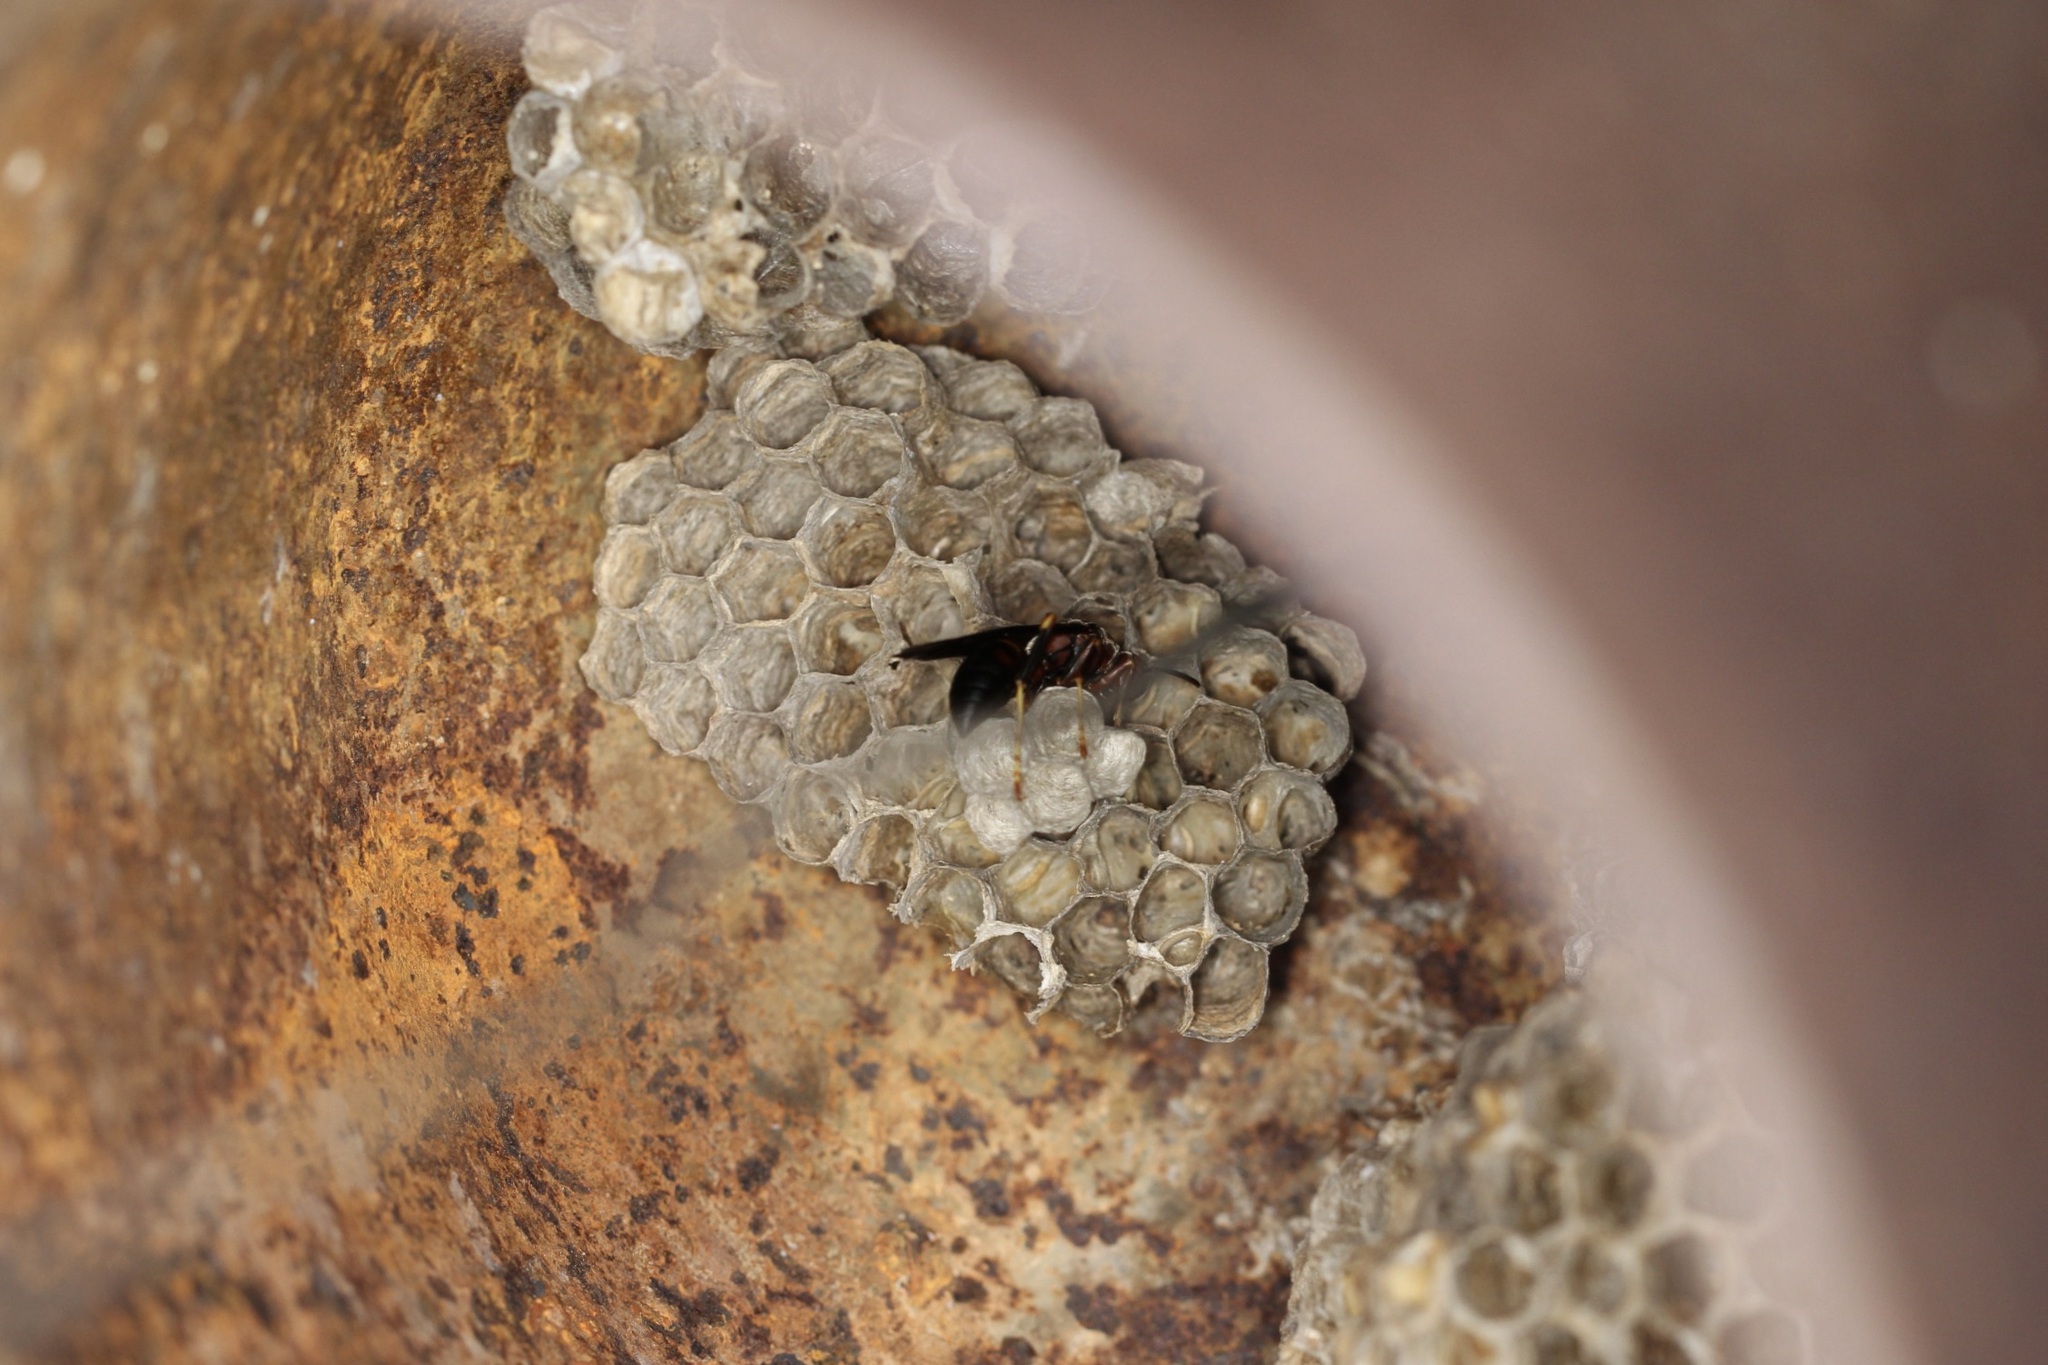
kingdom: Animalia
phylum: Arthropoda
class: Insecta
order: Hymenoptera
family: Eumenidae
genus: Polistes
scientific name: Polistes metricus
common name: Metric paper wasp
